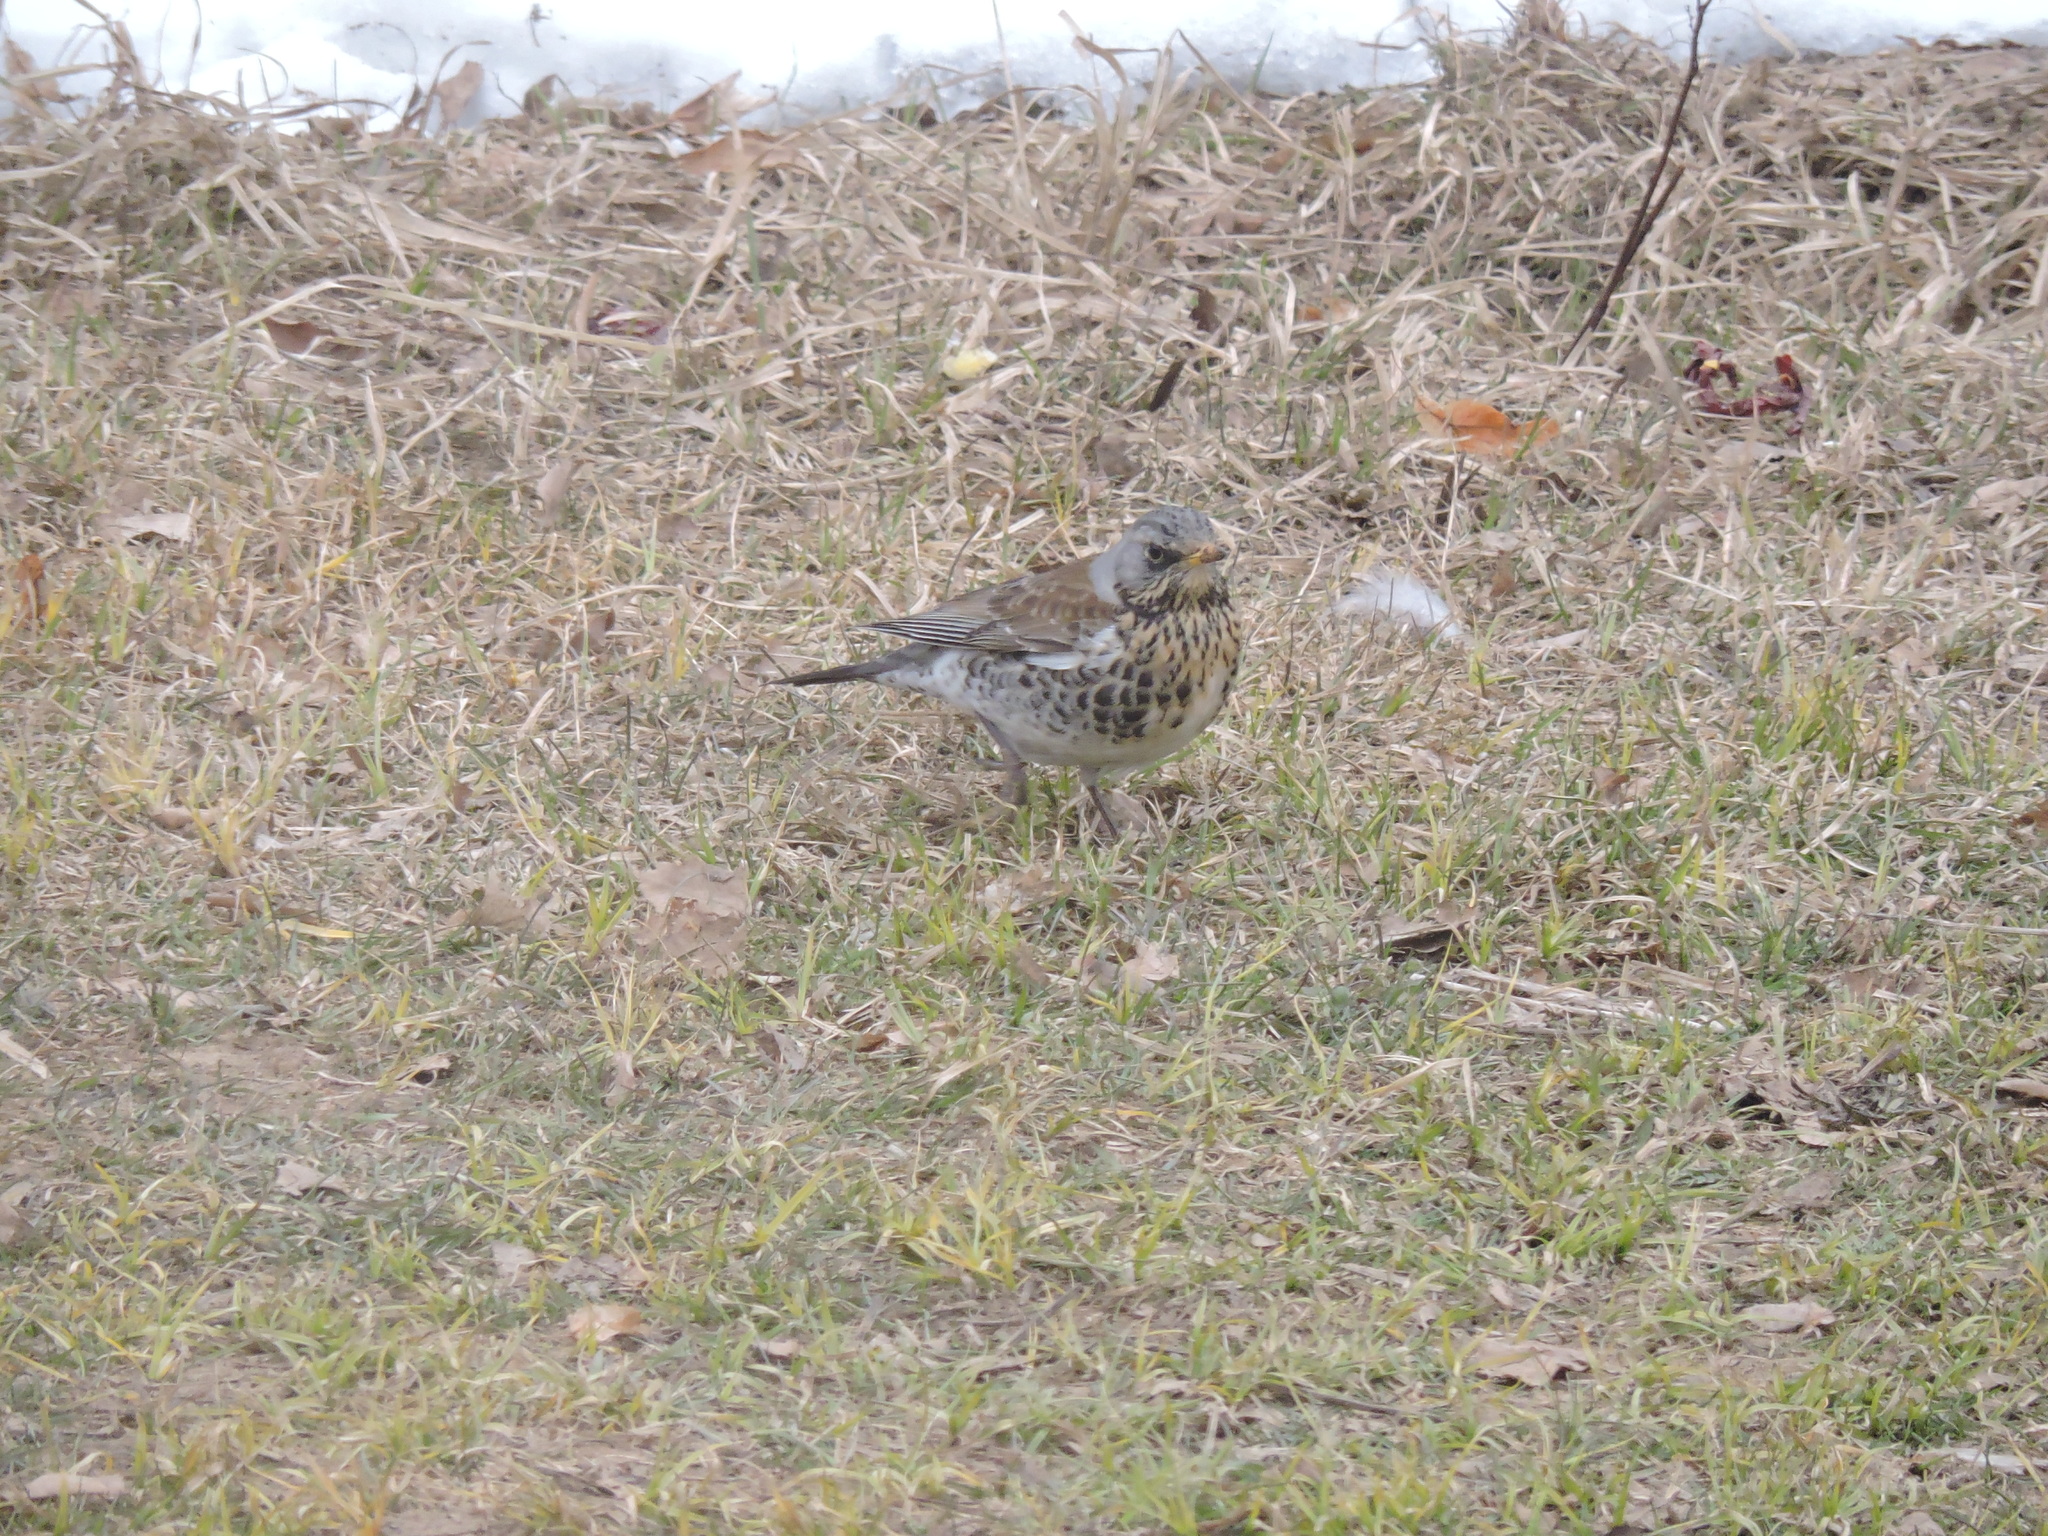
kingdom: Animalia
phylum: Chordata
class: Aves
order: Passeriformes
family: Turdidae
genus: Turdus
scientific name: Turdus pilaris
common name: Fieldfare
